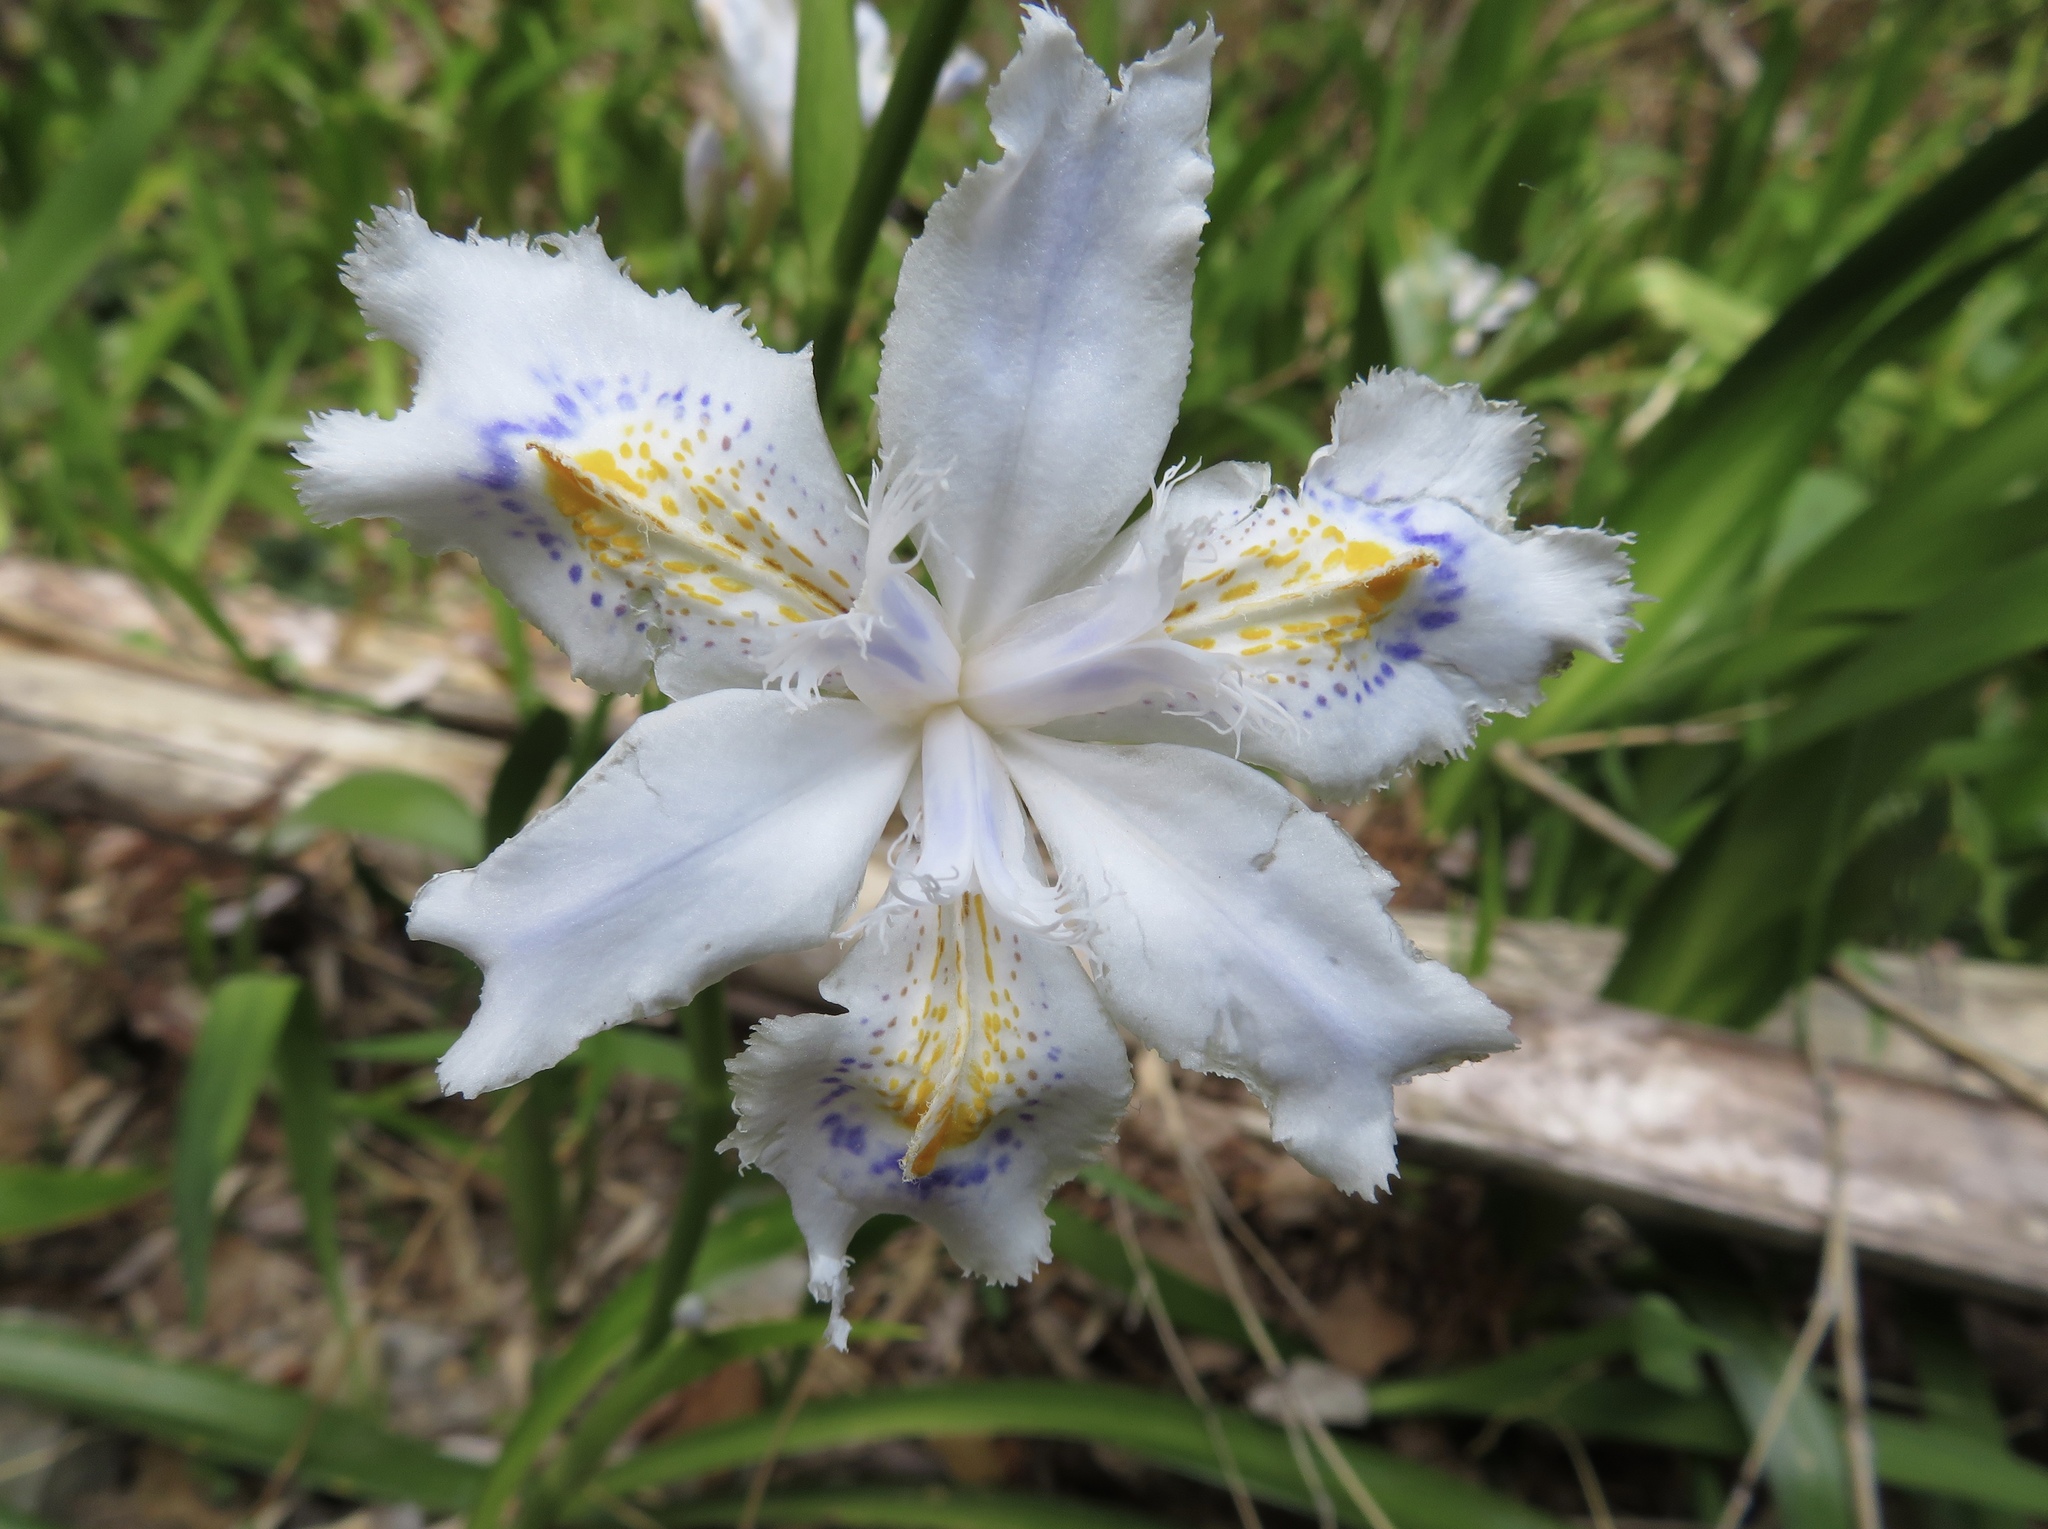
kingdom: Plantae
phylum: Tracheophyta
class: Liliopsida
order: Asparagales
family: Iridaceae
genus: Iris
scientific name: Iris japonica
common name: Butterfly-flower
